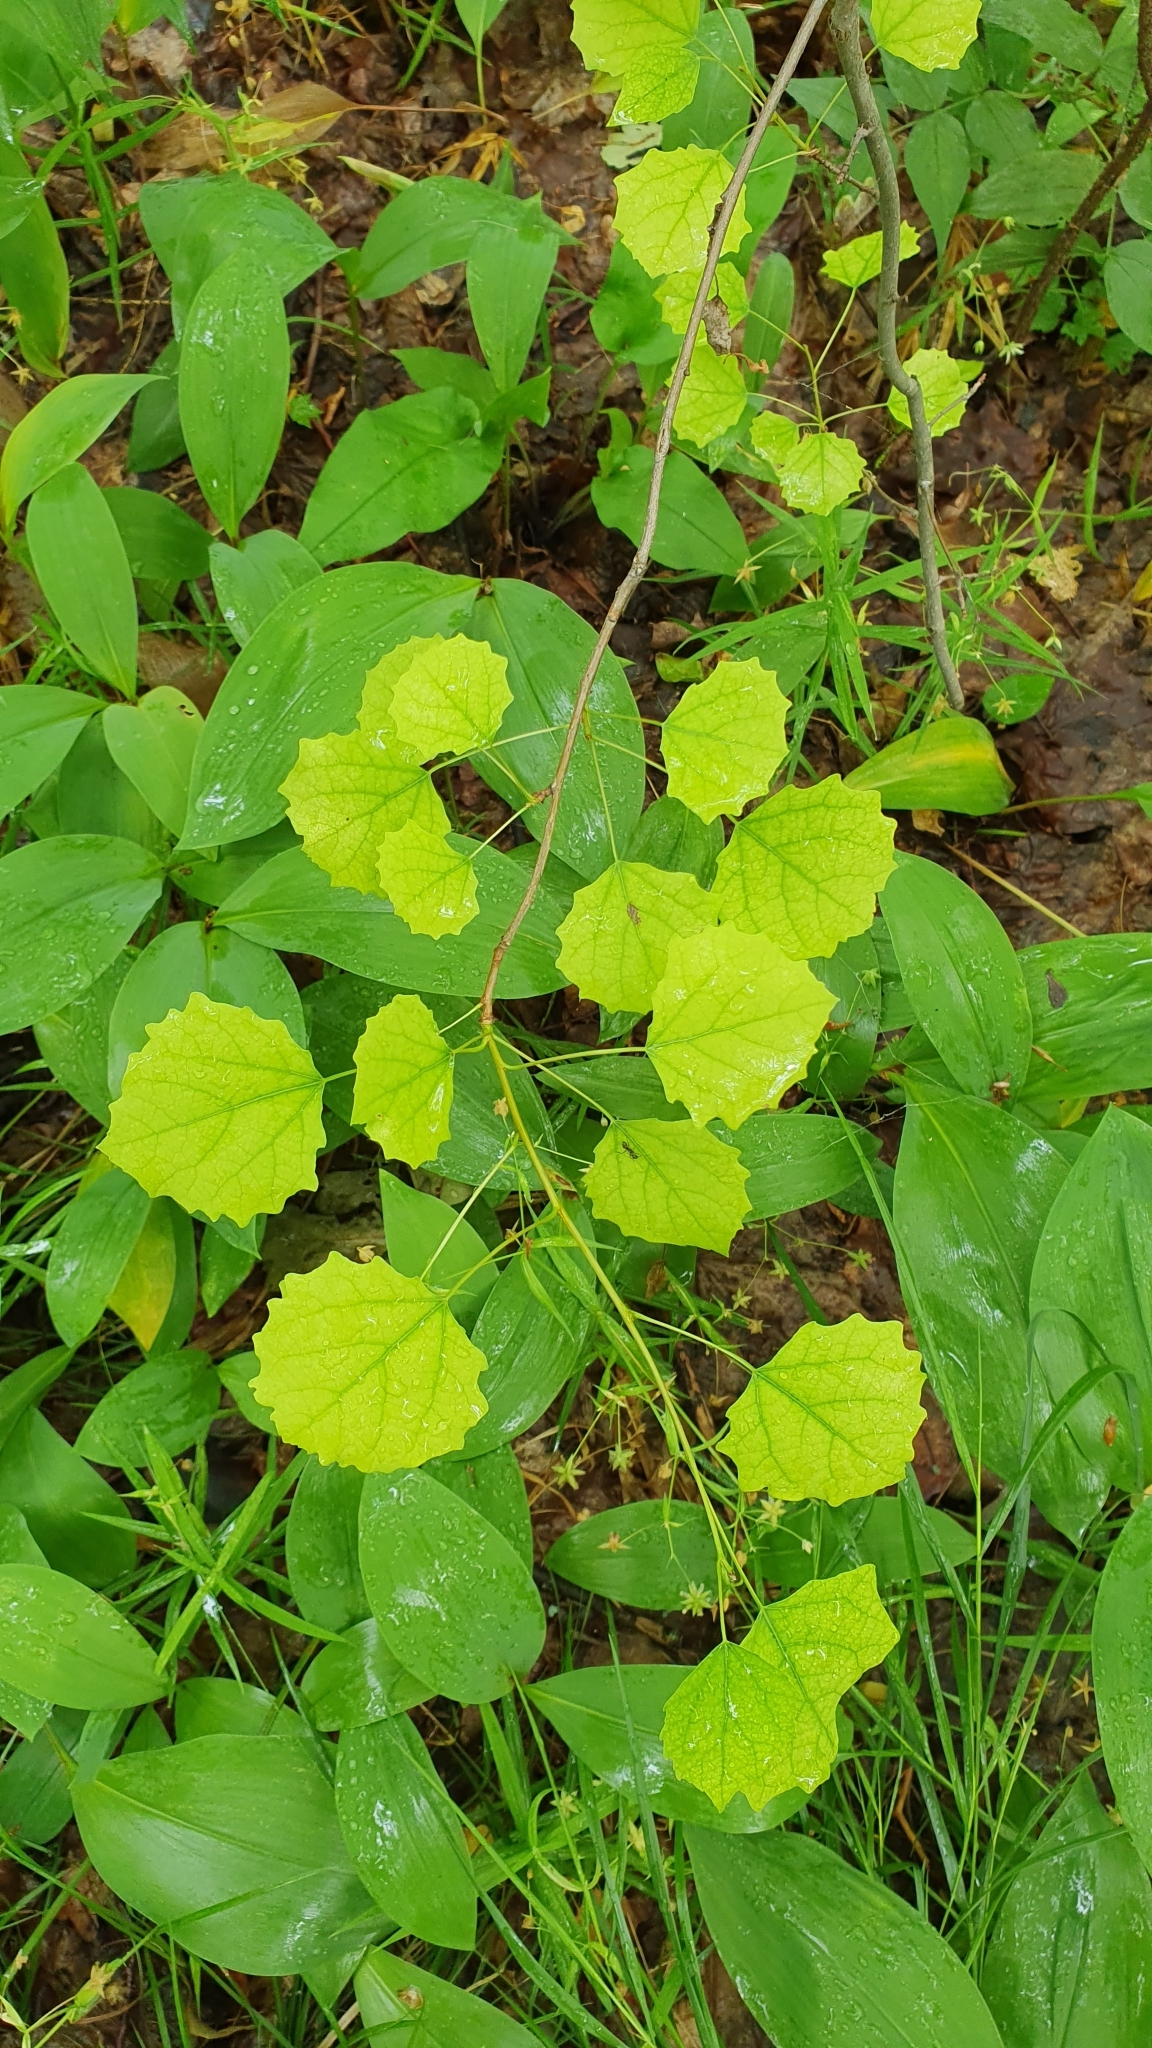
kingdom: Plantae
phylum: Tracheophyta
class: Magnoliopsida
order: Malpighiales
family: Salicaceae
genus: Populus
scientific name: Populus tremula
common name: European aspen
